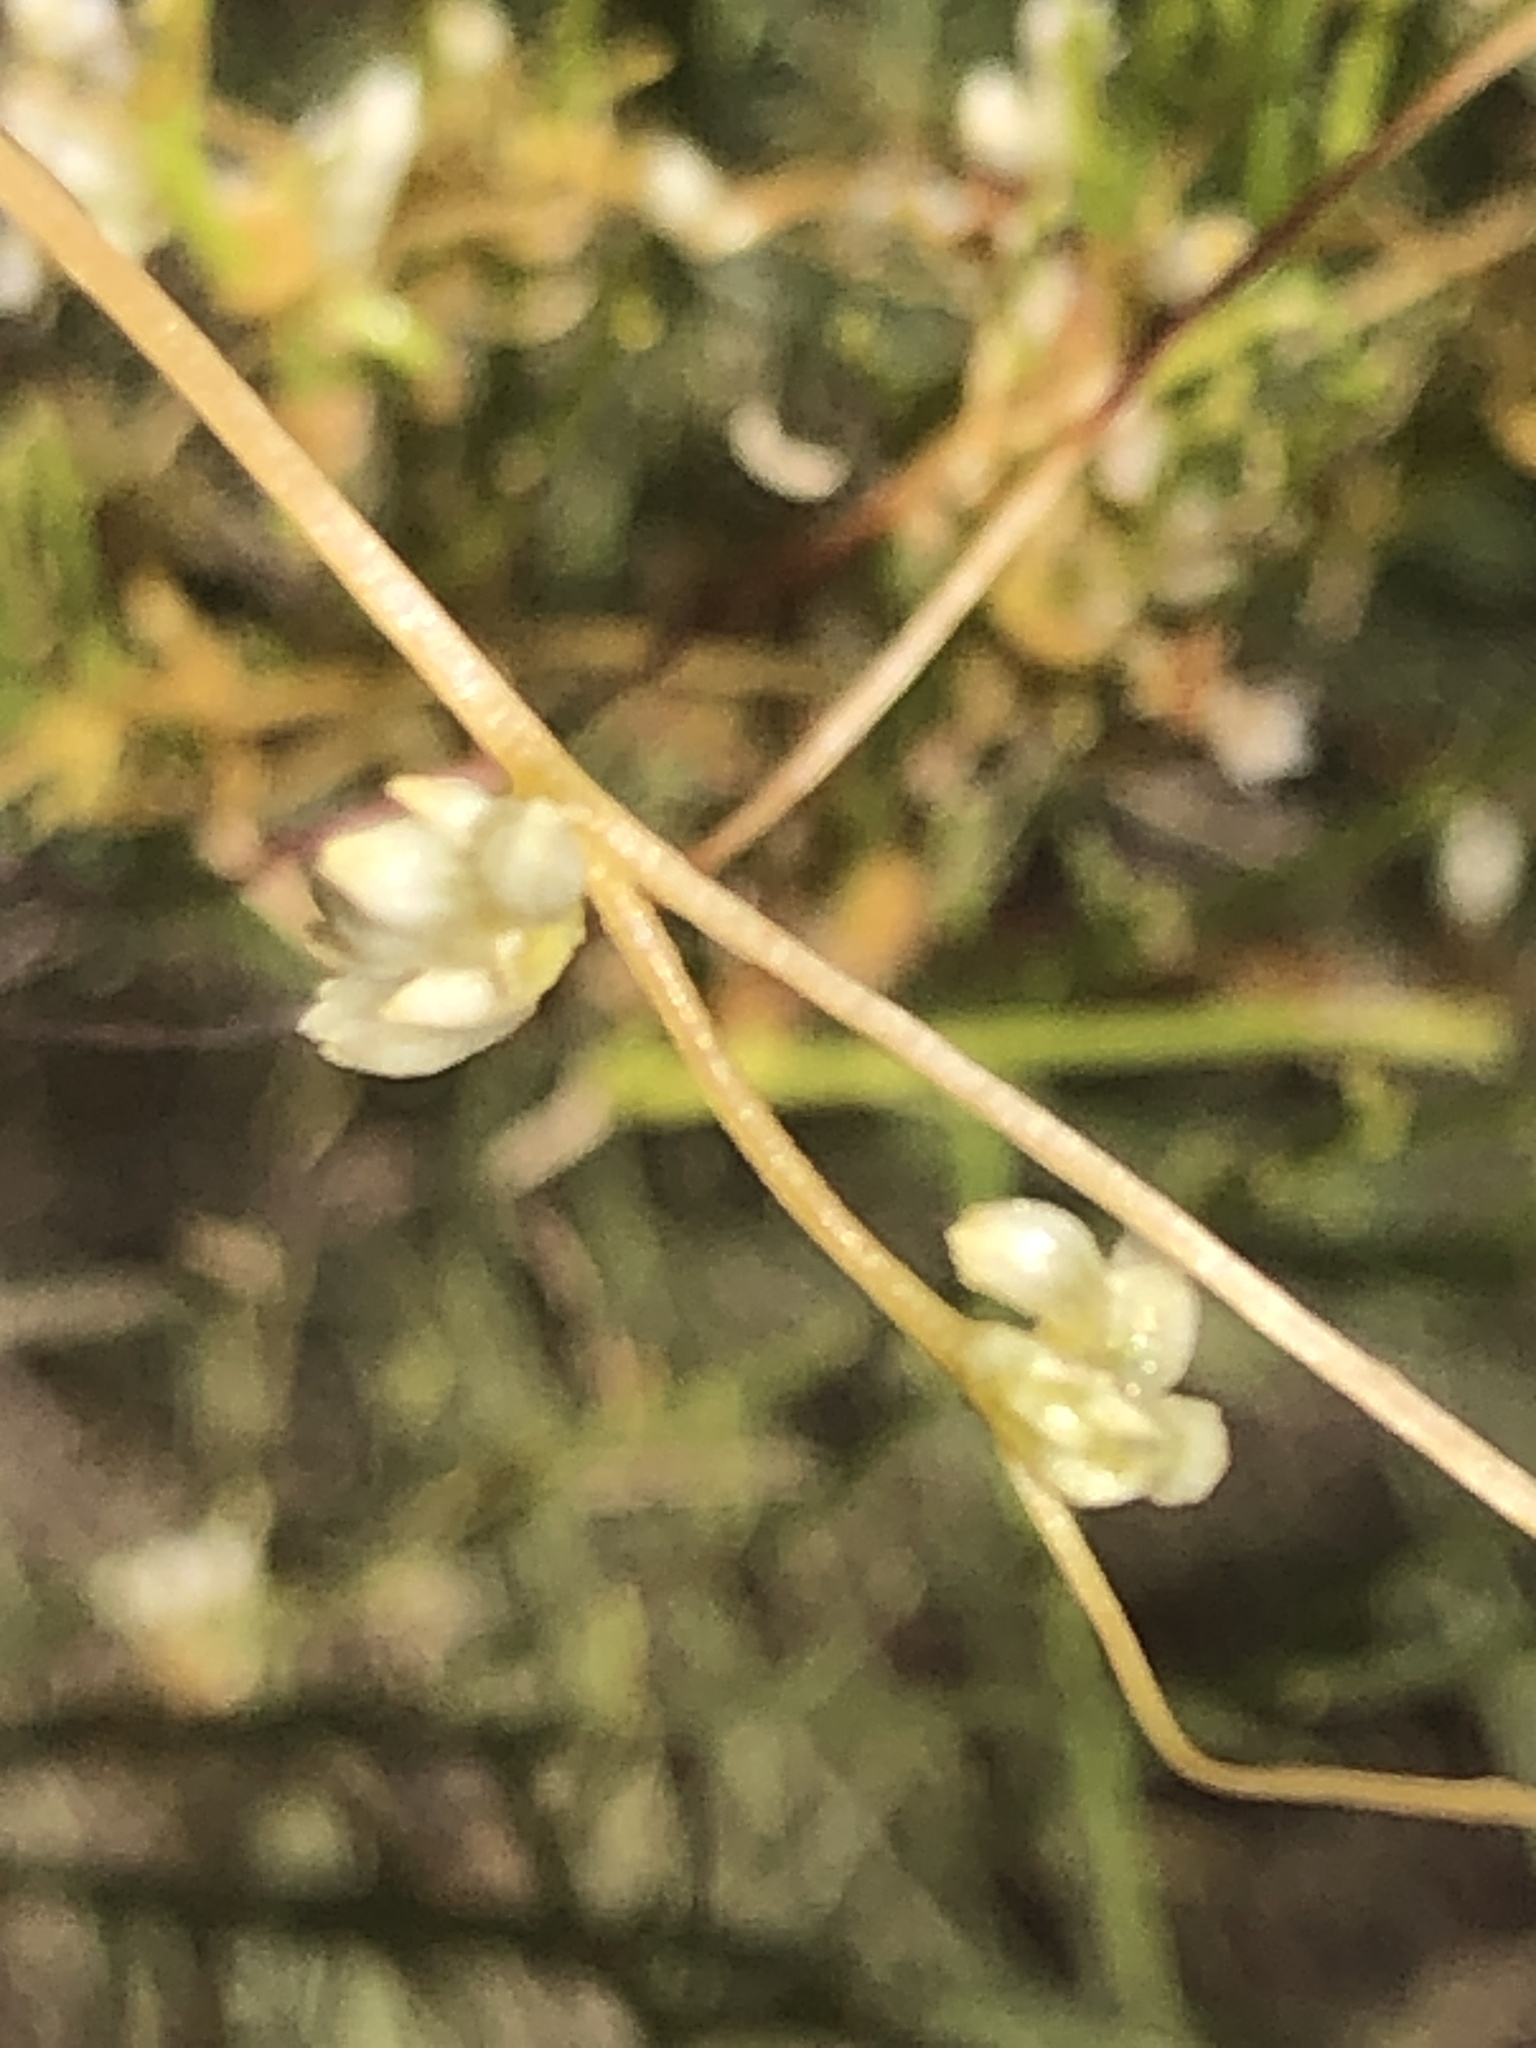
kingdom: Plantae
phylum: Tracheophyta
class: Magnoliopsida
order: Solanales
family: Convolvulaceae
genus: Cuscuta
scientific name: Cuscuta subinclusa
